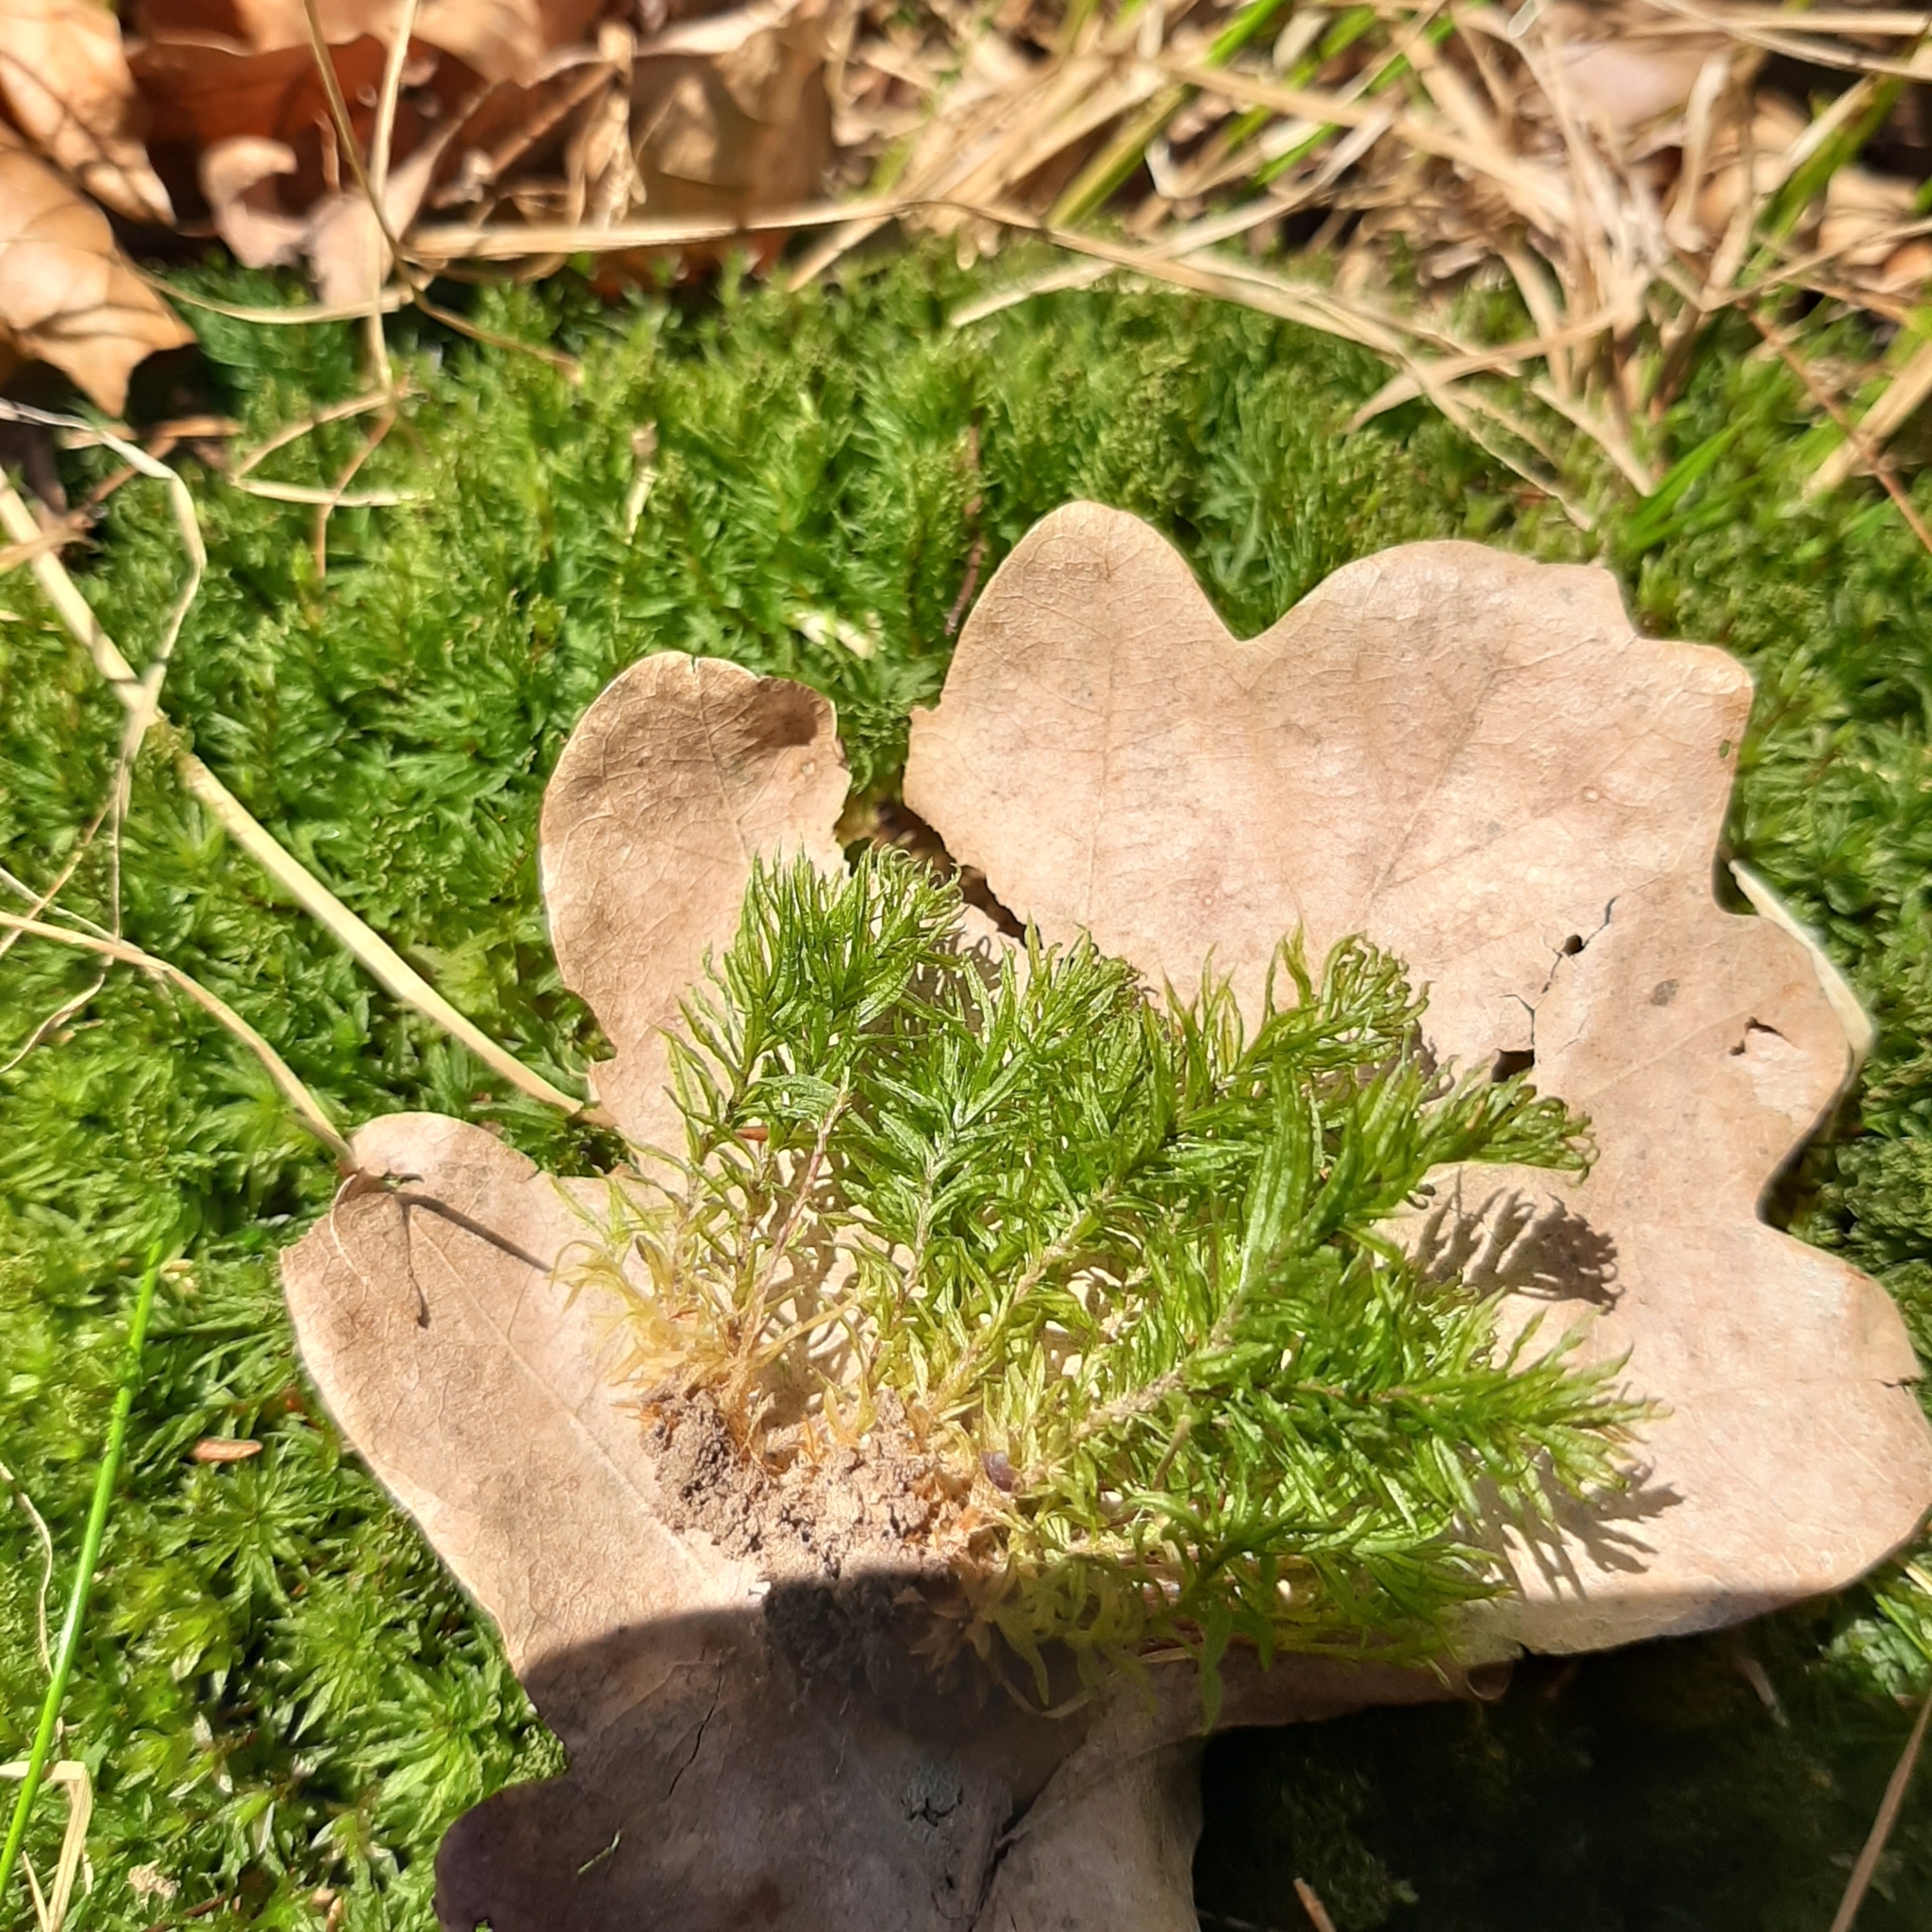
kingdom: Plantae
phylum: Bryophyta
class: Polytrichopsida
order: Polytrichales
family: Polytrichaceae
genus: Atrichum
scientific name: Atrichum undulatum
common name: Common smoothcap
